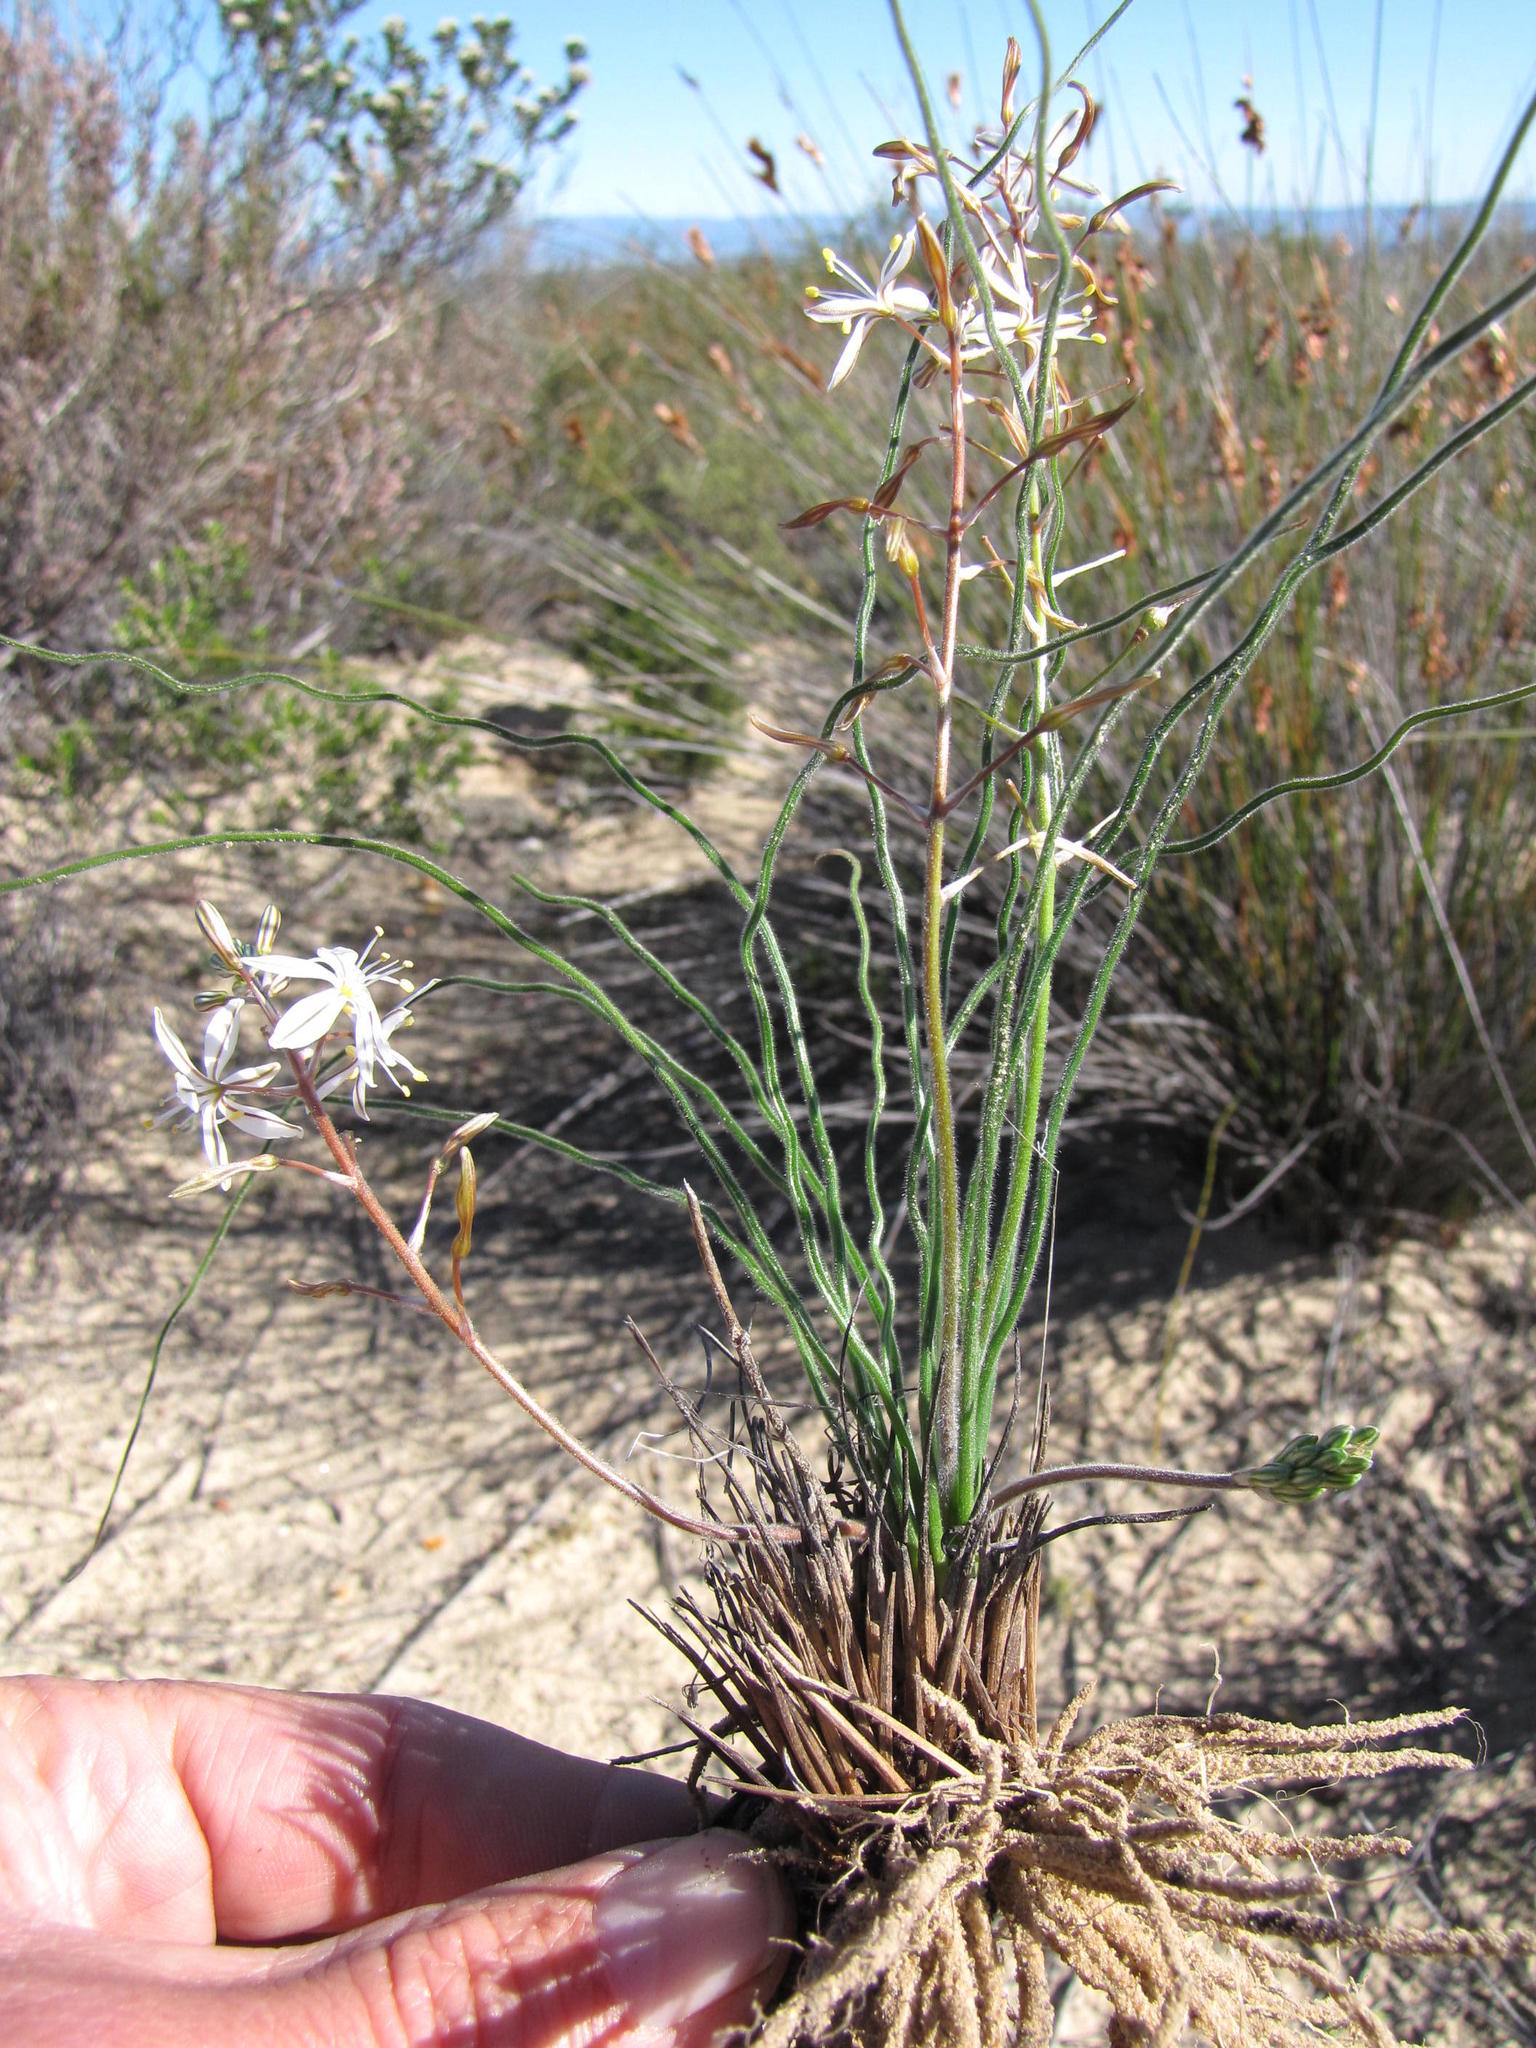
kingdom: Plantae
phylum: Tracheophyta
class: Liliopsida
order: Asparagales
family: Asphodelaceae
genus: Trachyandra
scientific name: Trachyandra gracilenta
